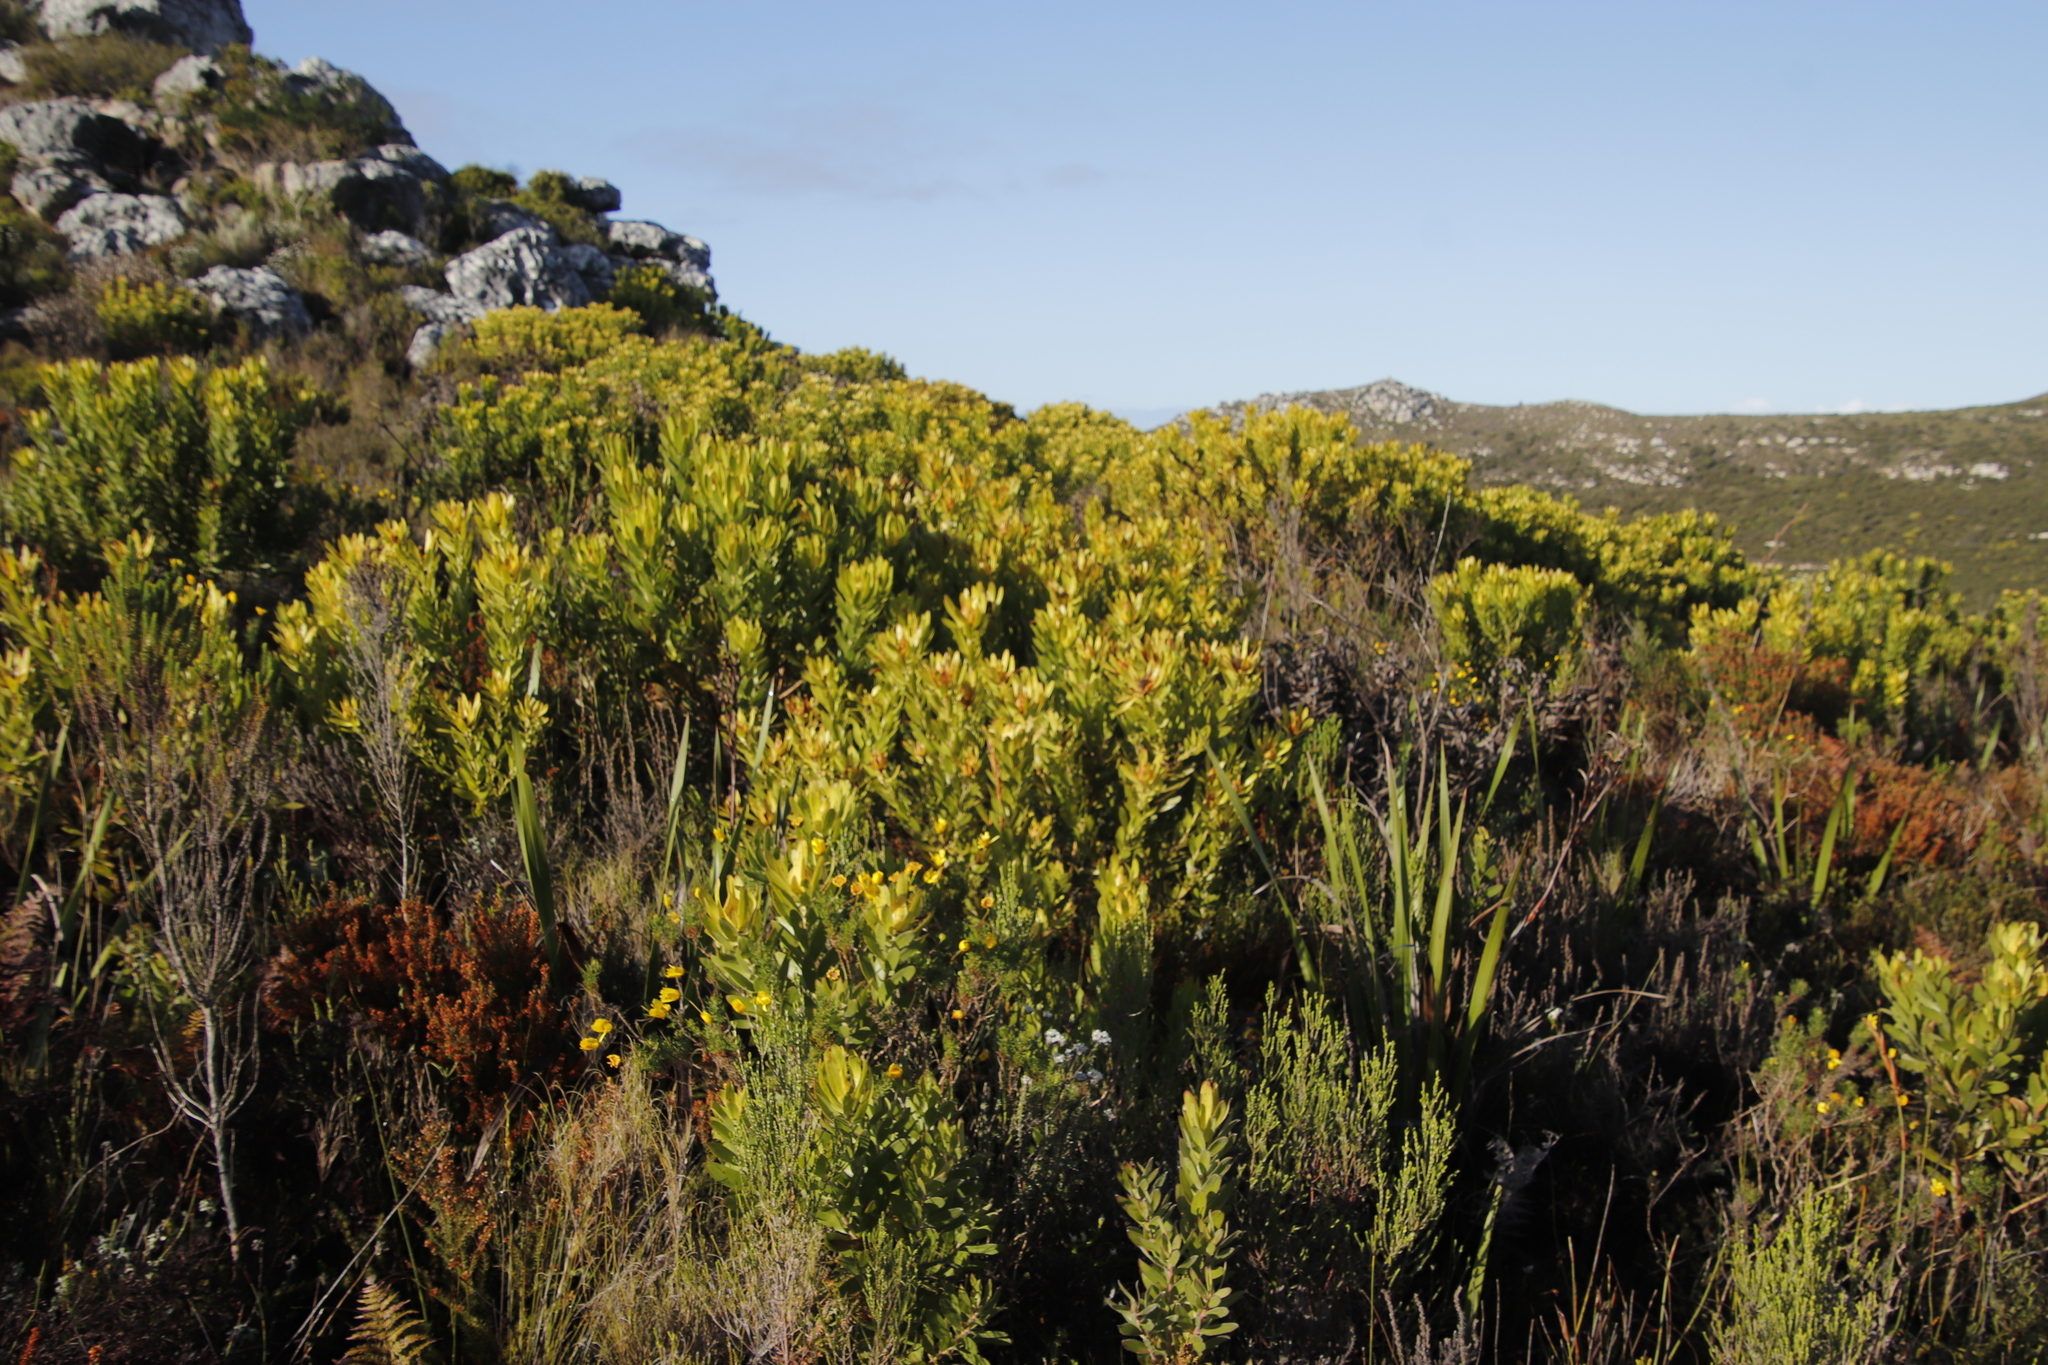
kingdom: Plantae
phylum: Tracheophyta
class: Magnoliopsida
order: Proteales
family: Proteaceae
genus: Leucadendron
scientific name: Leucadendron laureolum
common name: Golden sunshinebush
